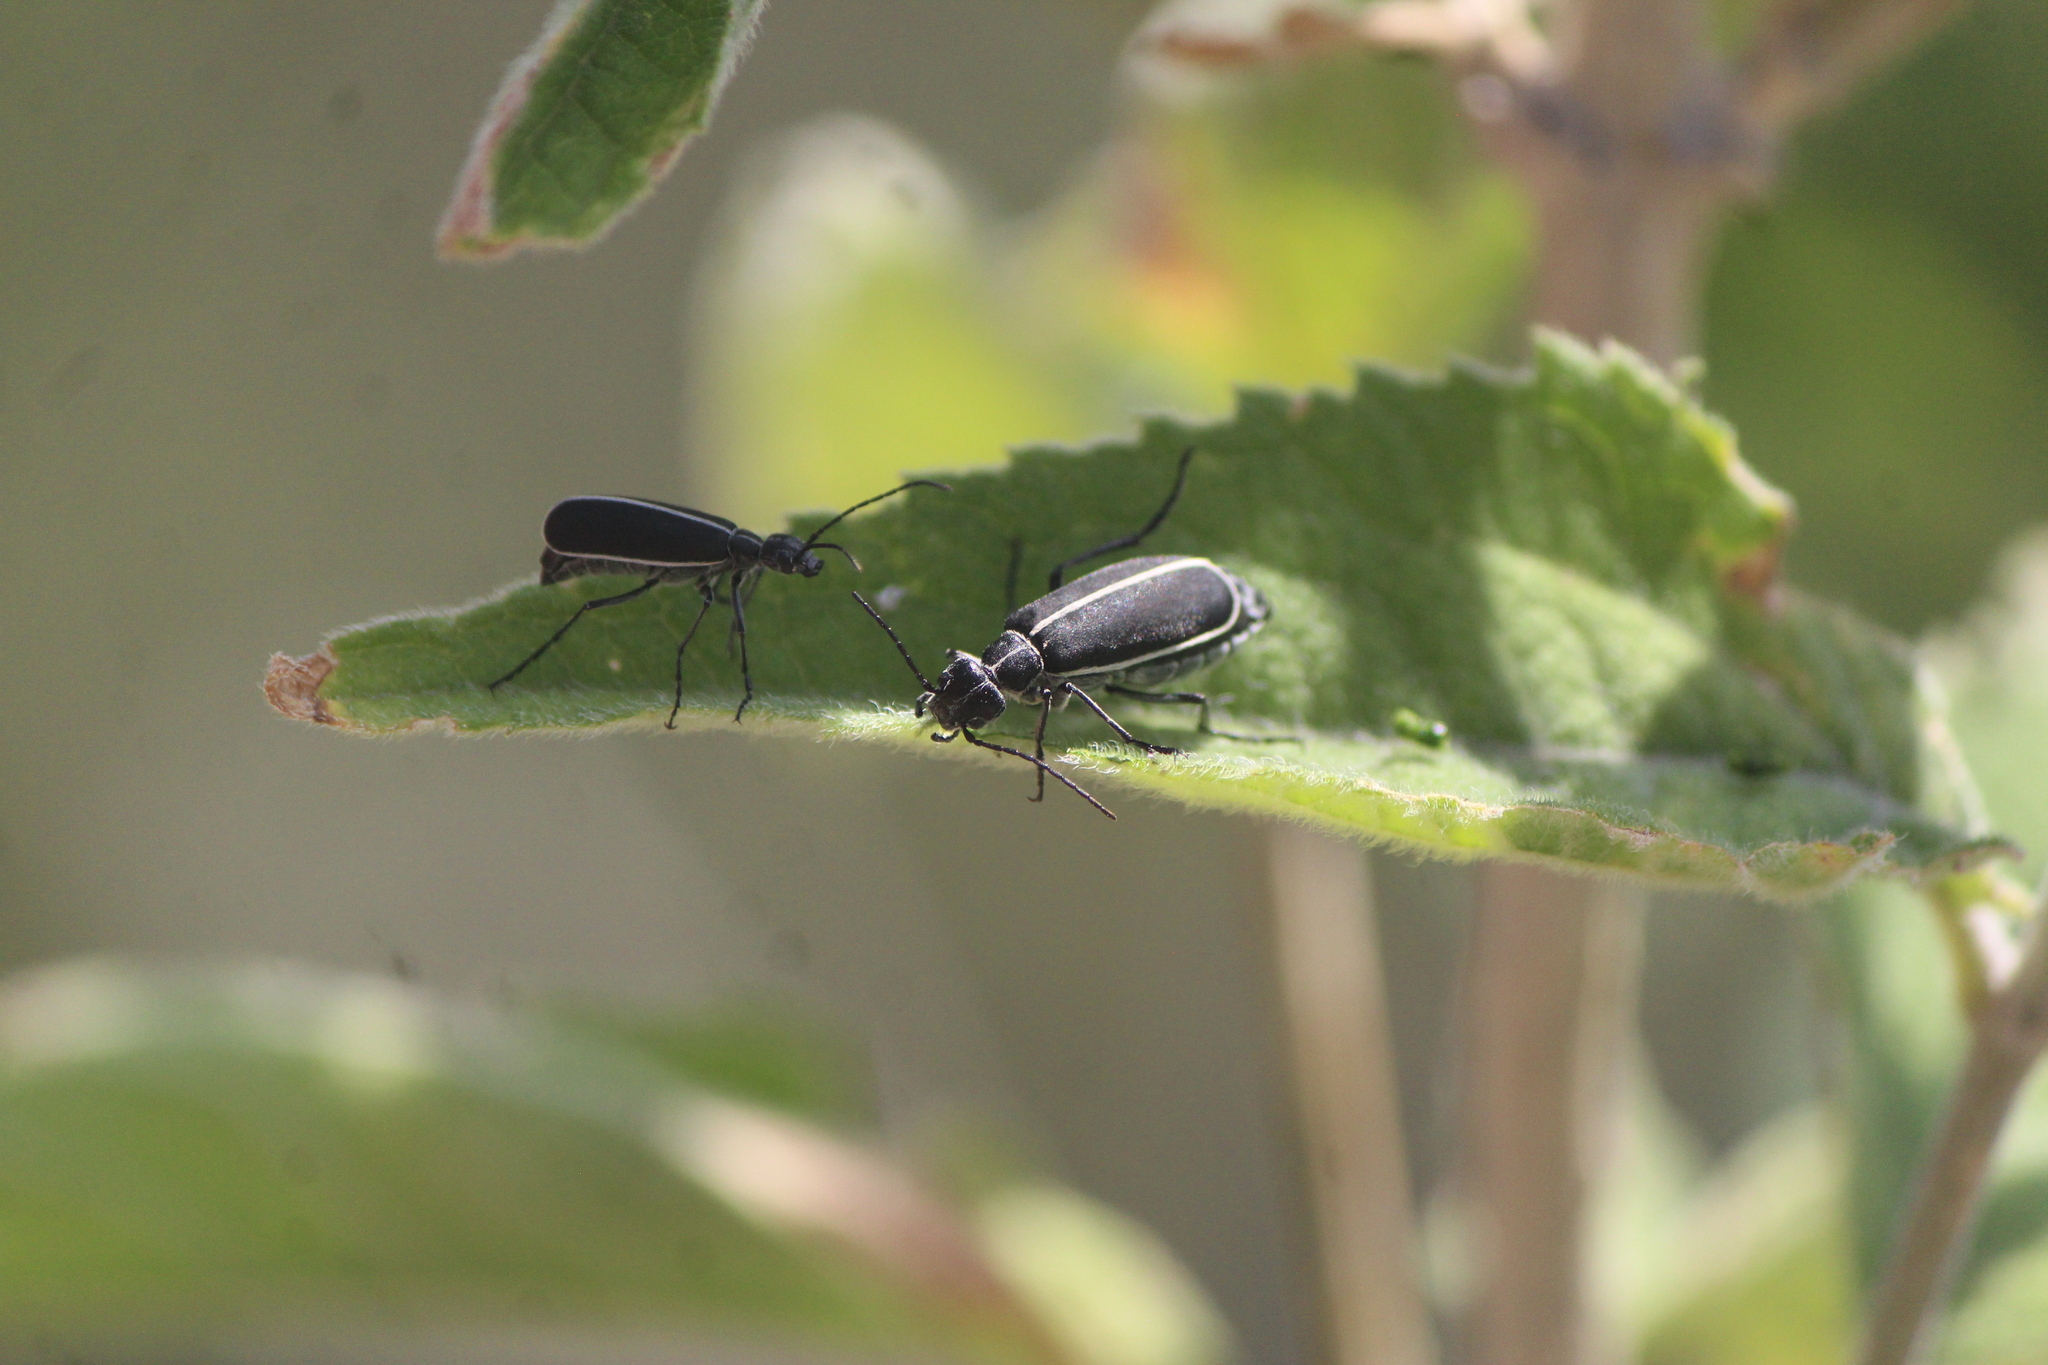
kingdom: Animalia
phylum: Arthropoda
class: Insecta
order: Coleoptera
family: Meloidae
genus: Epicauta
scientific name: Epicauta cinctipennis
